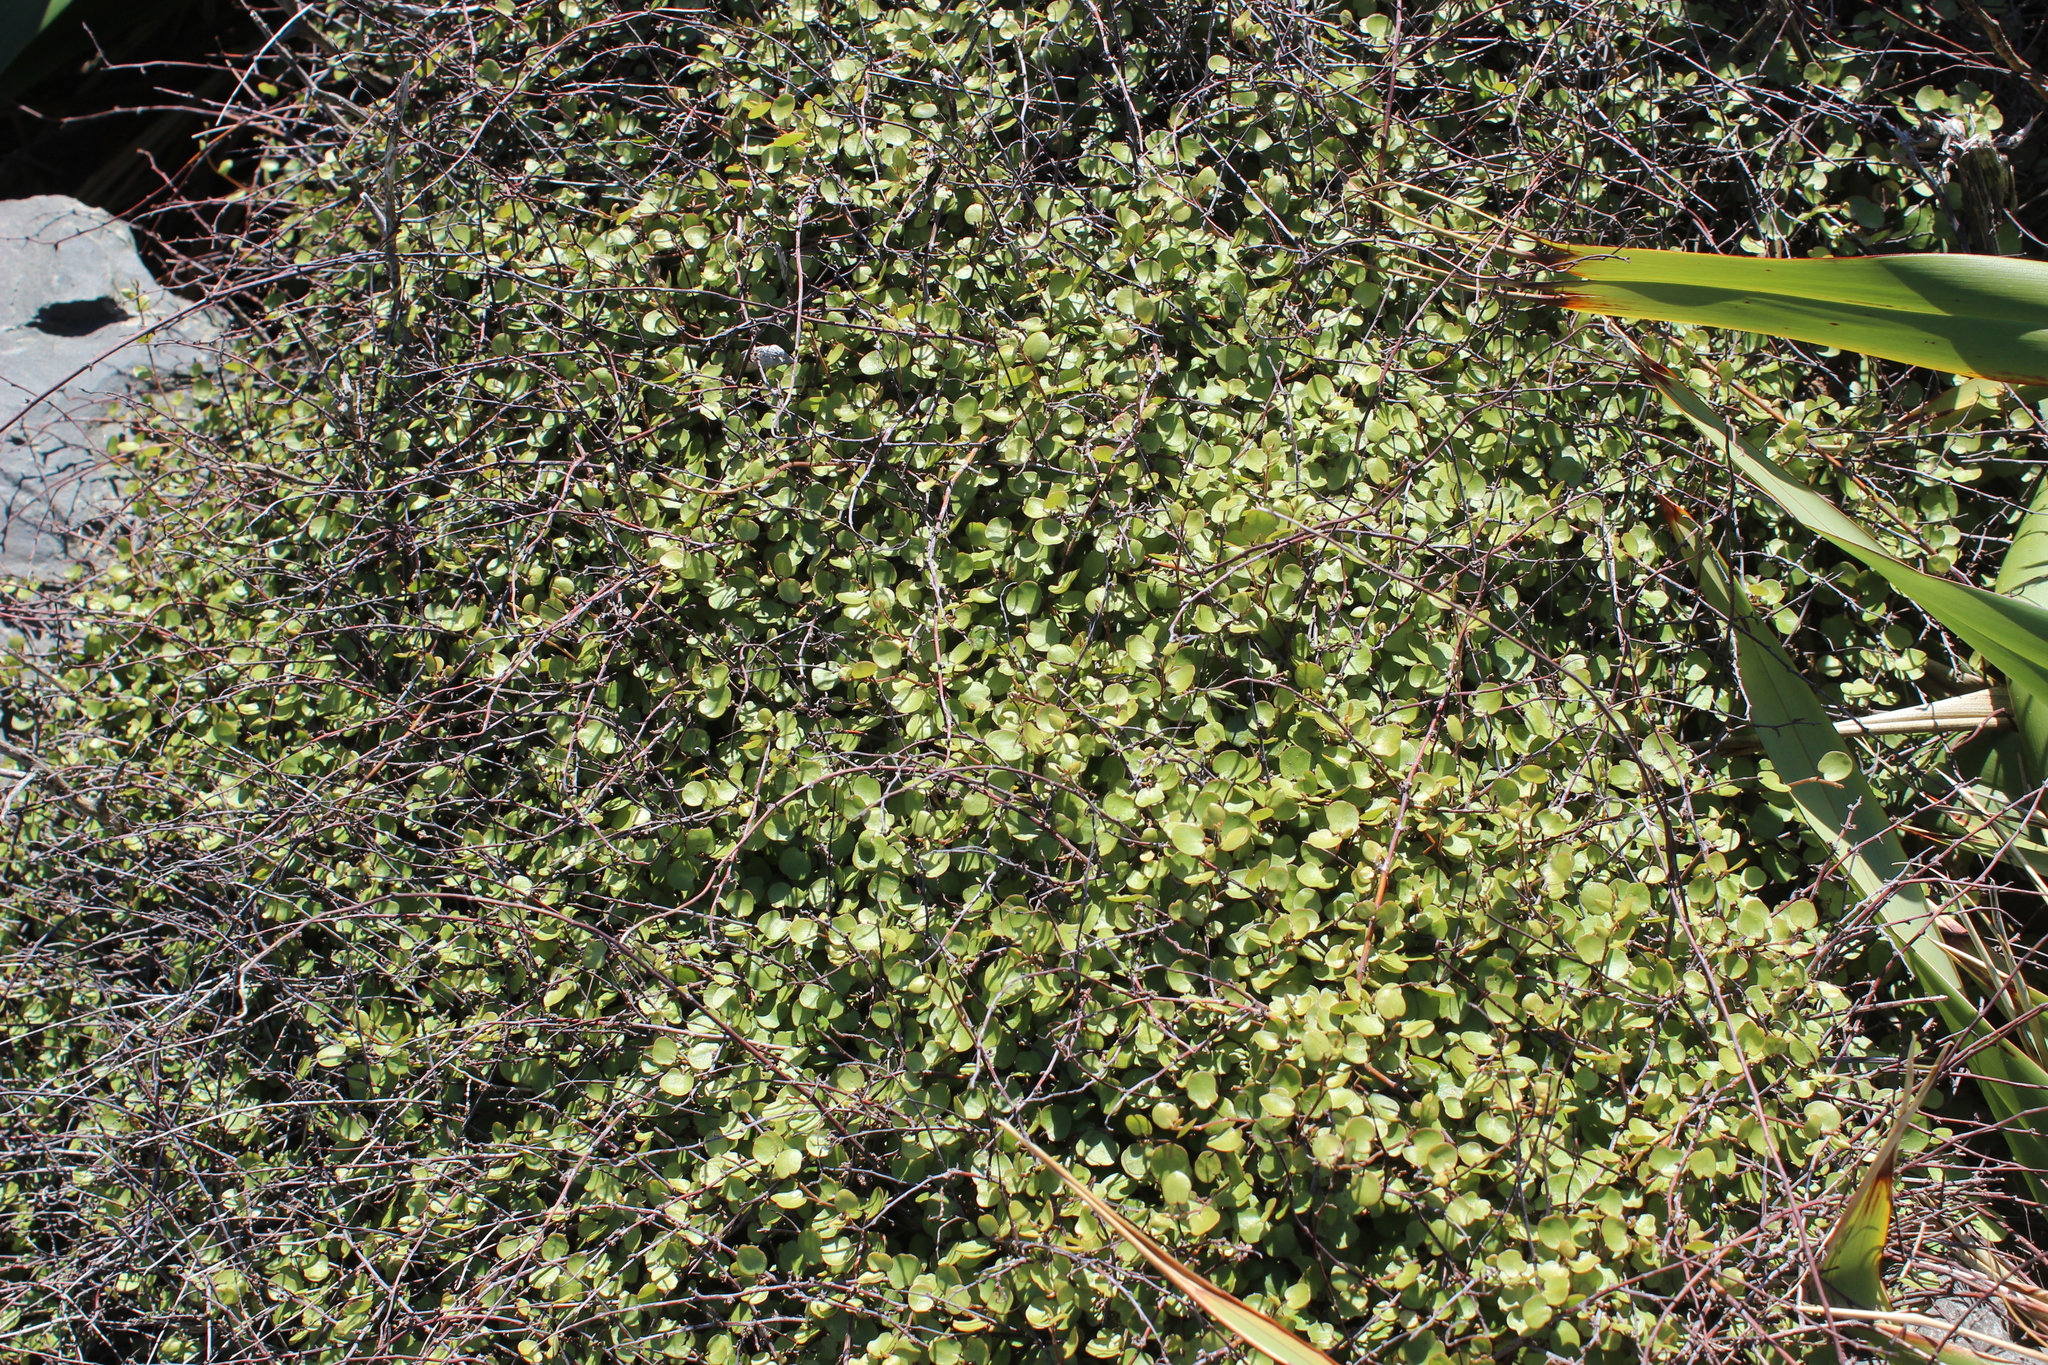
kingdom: Plantae
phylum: Tracheophyta
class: Magnoliopsida
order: Caryophyllales
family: Polygonaceae
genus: Muehlenbeckia
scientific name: Muehlenbeckia complexa
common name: Wireplant
